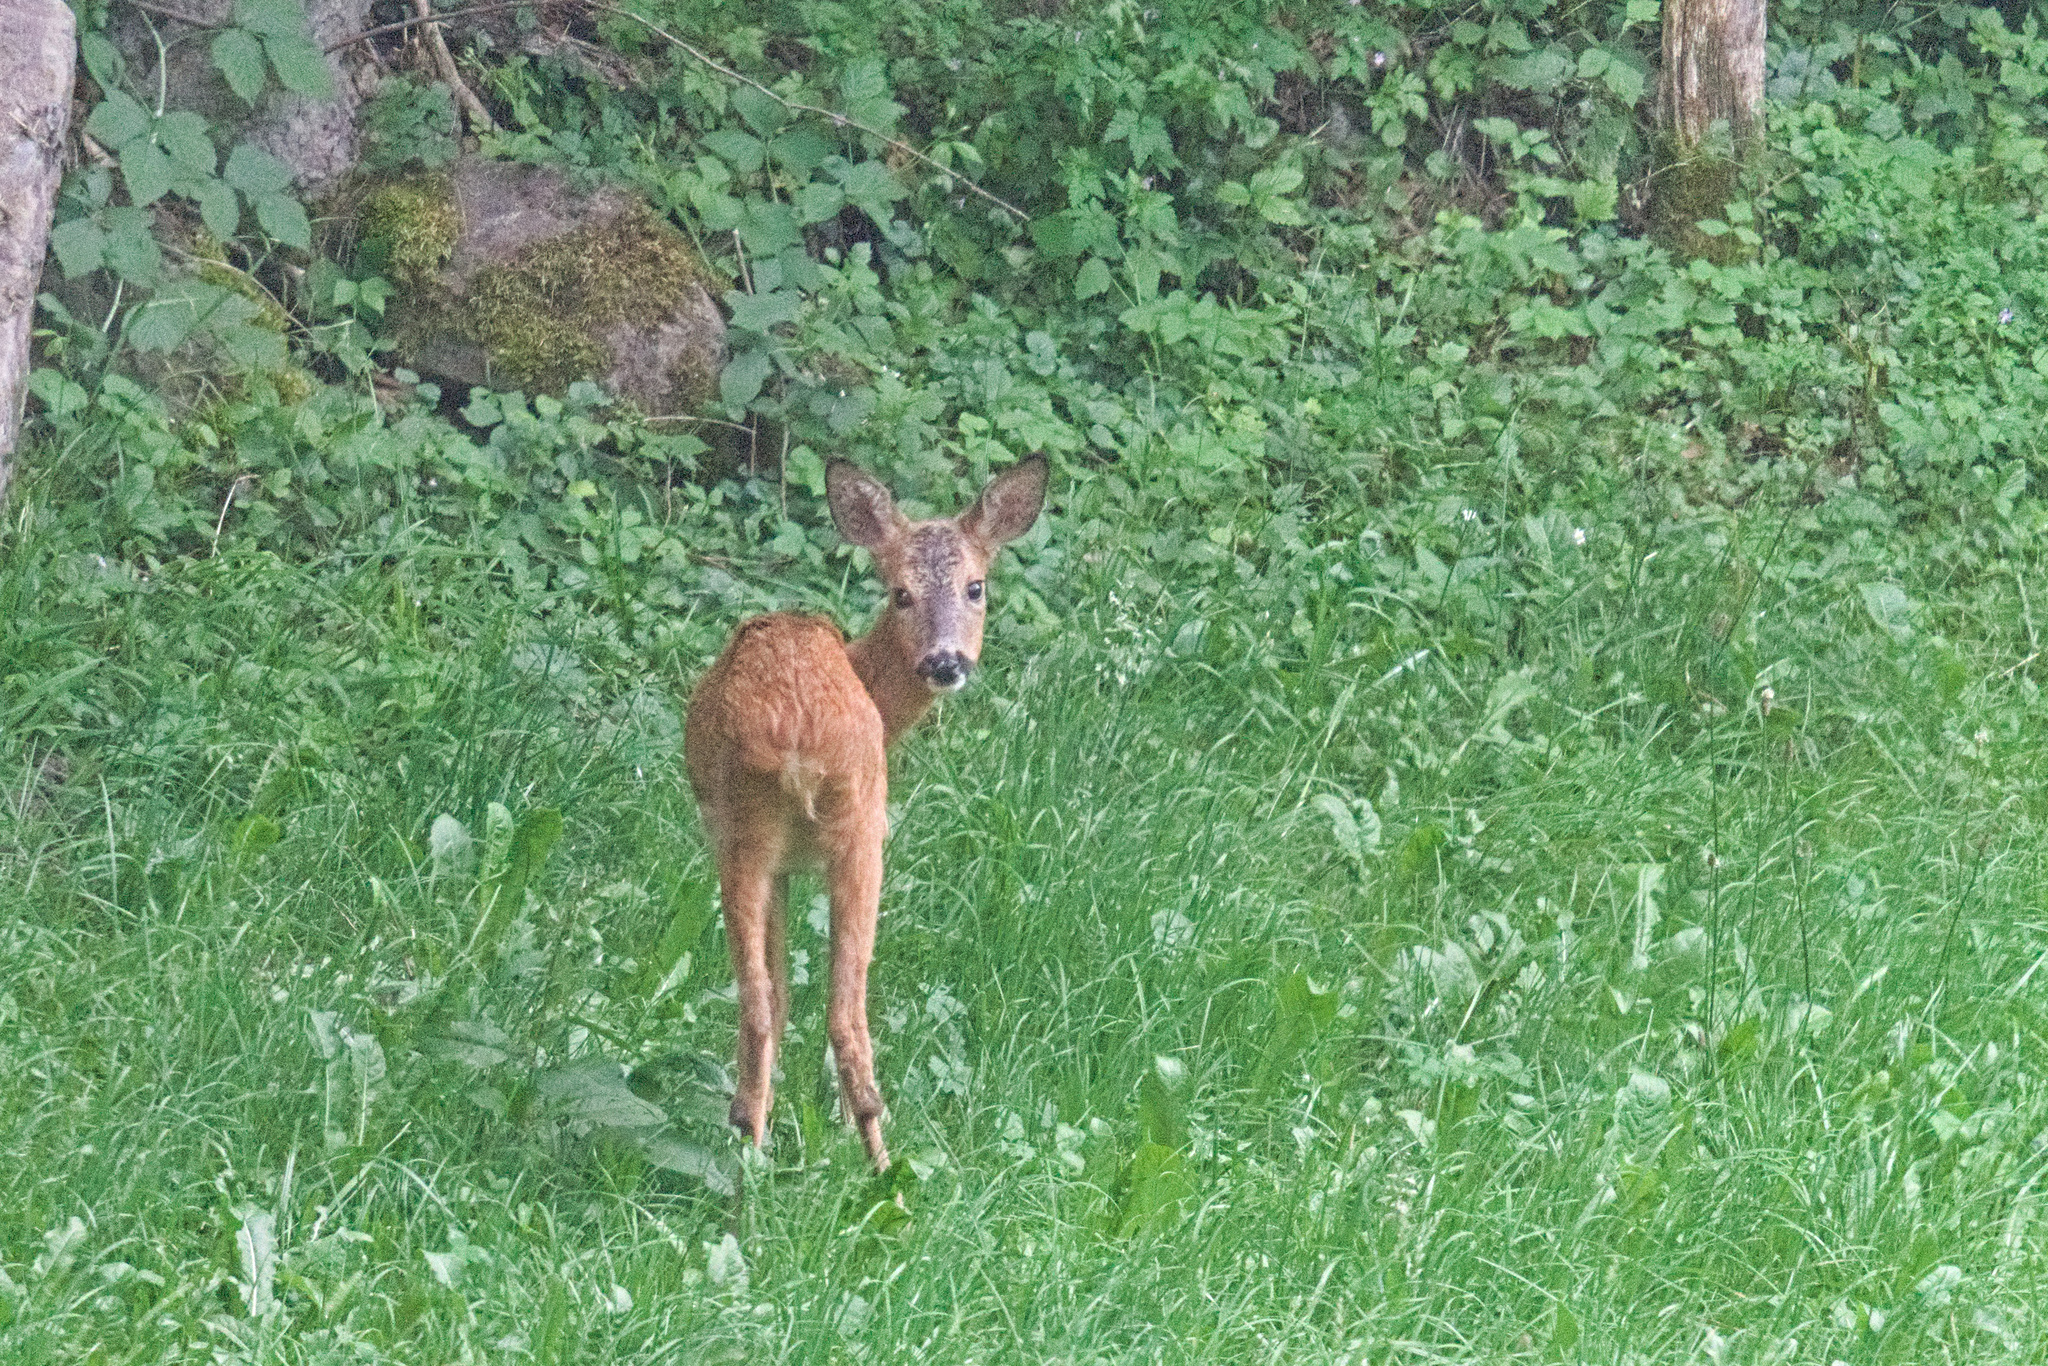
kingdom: Animalia
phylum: Chordata
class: Mammalia
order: Artiodactyla
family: Cervidae
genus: Capreolus
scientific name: Capreolus capreolus
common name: Western roe deer
